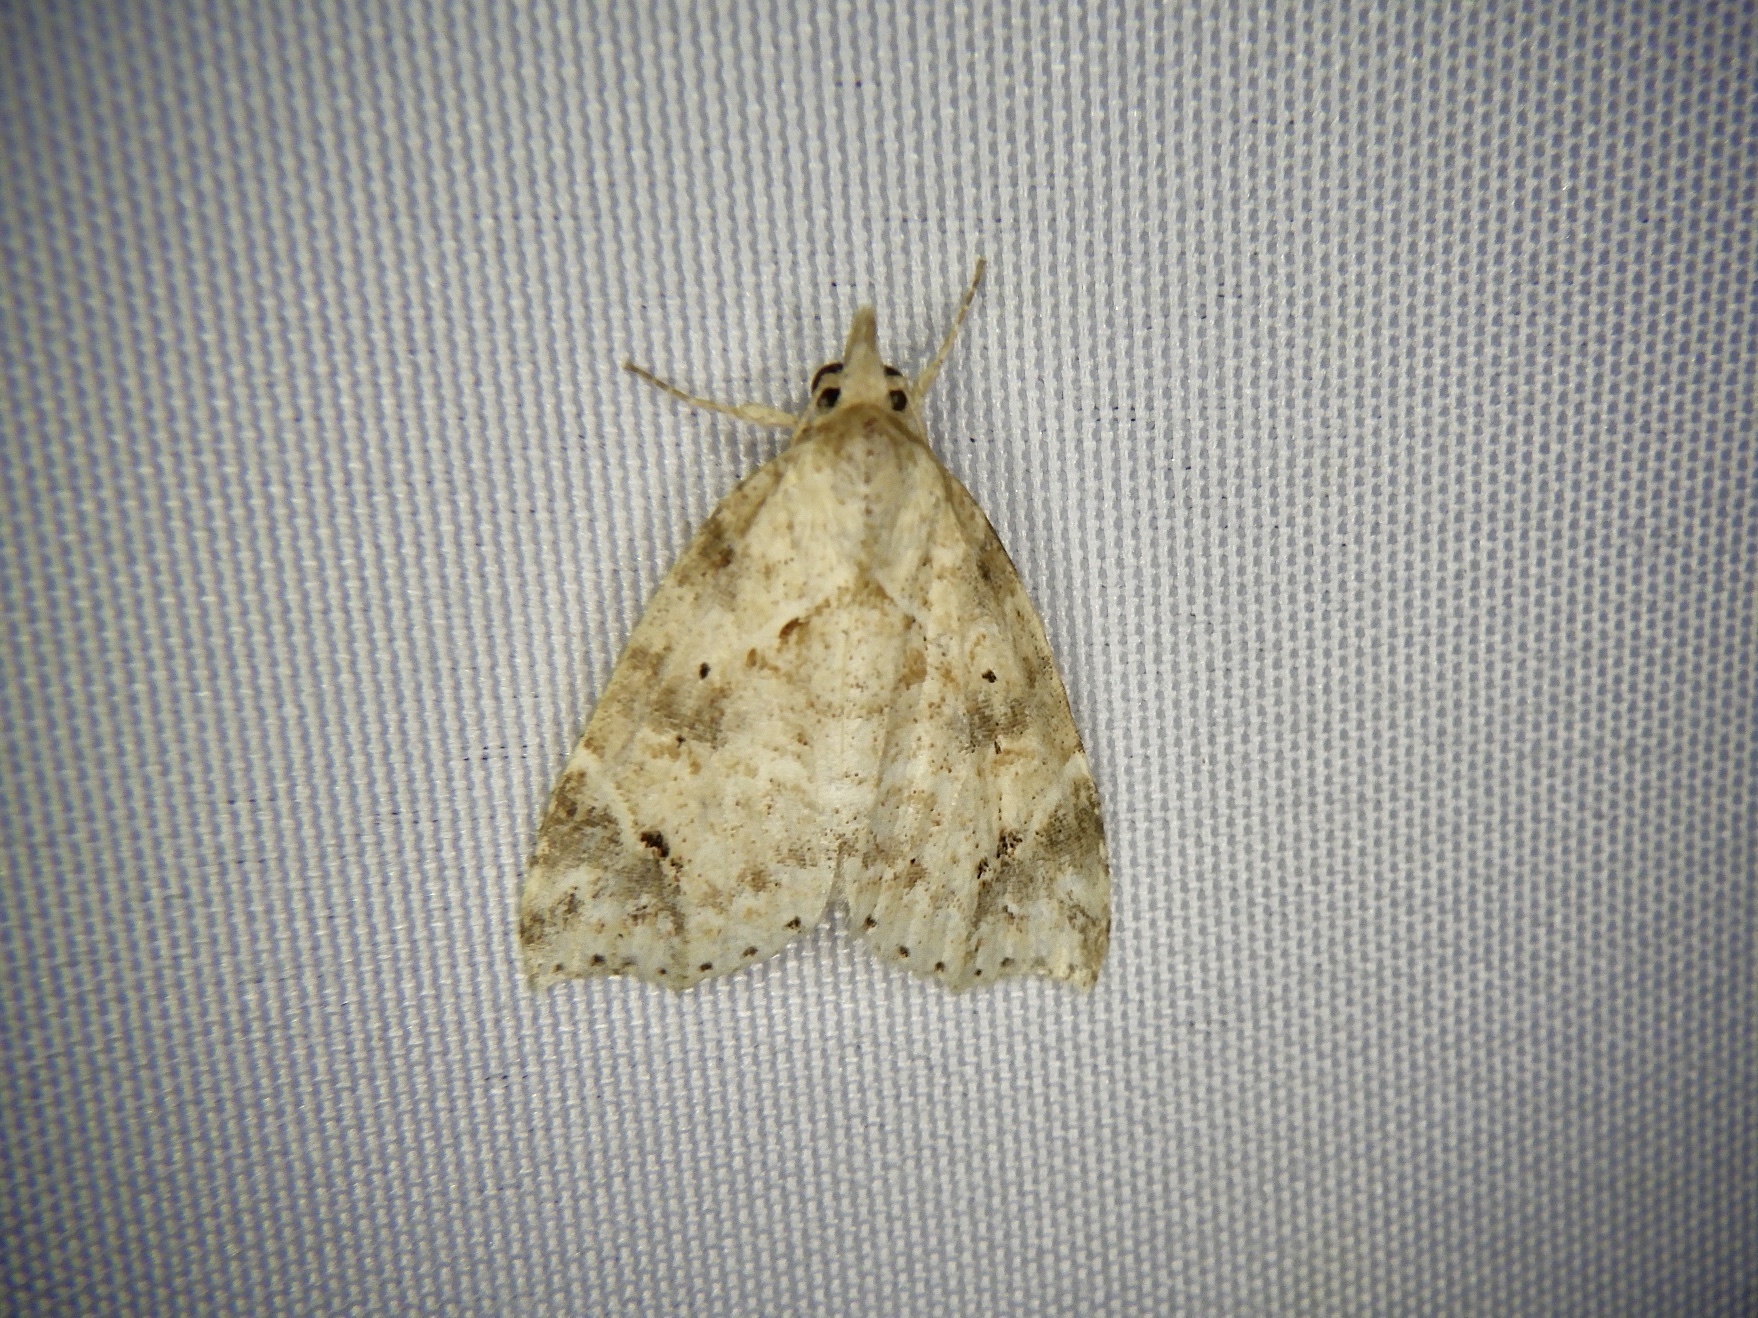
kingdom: Animalia
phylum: Arthropoda
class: Insecta
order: Lepidoptera
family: Erebidae
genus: Olulis
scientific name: Olulis
